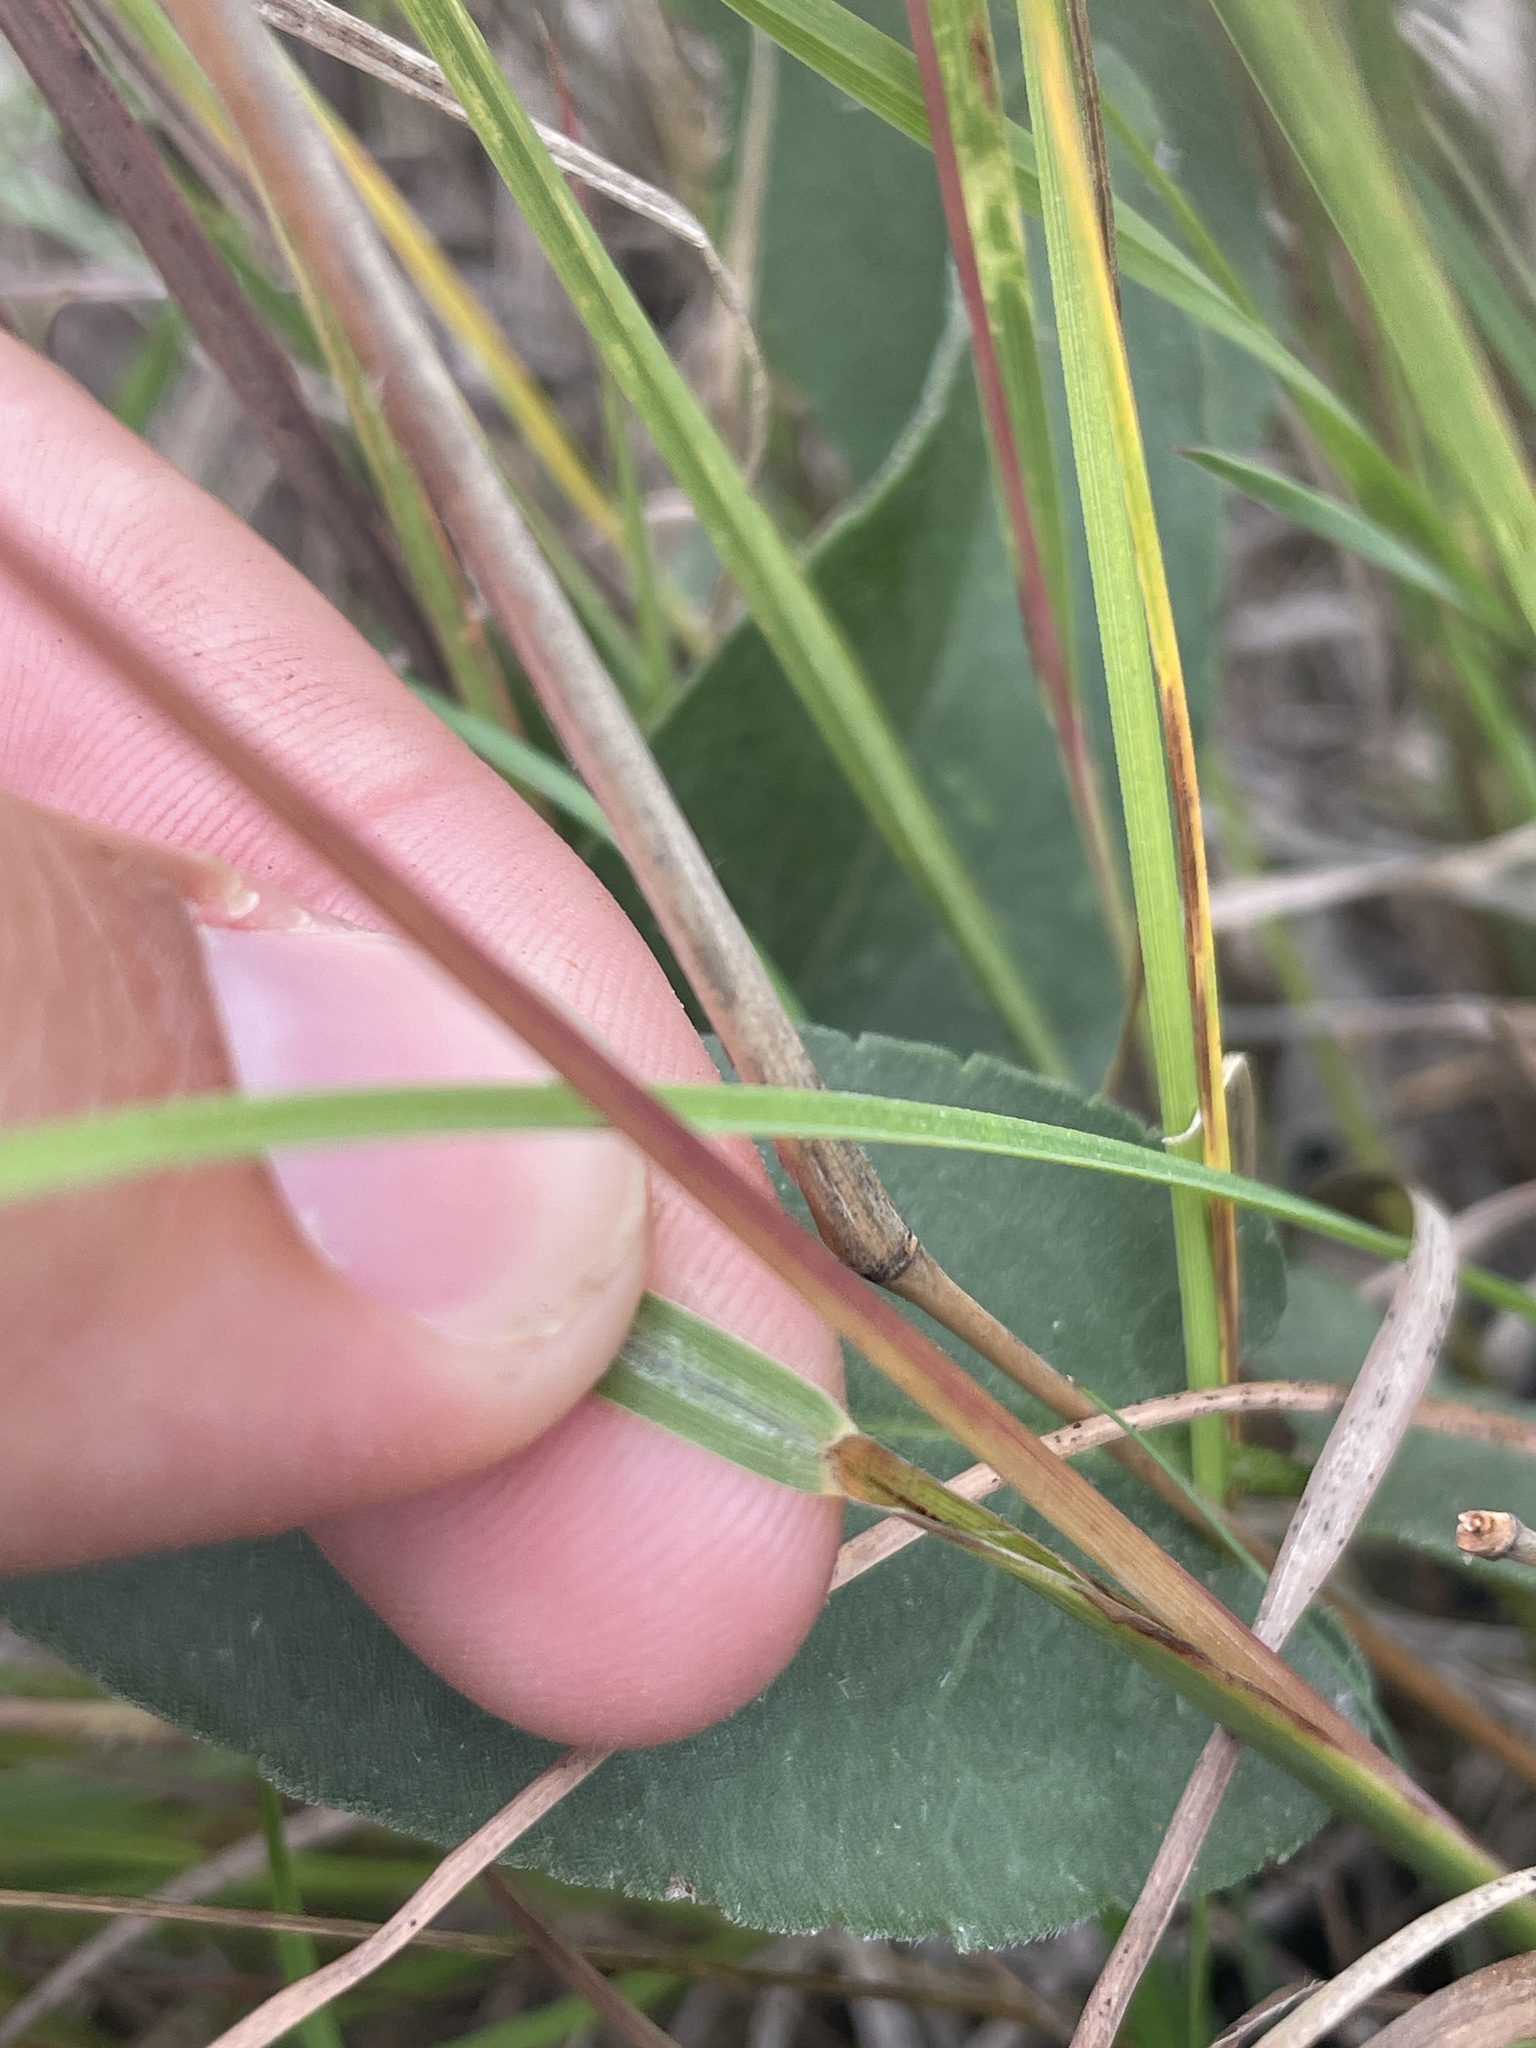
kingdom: Plantae
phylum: Tracheophyta
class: Liliopsida
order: Poales
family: Poaceae
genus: Schizachyrium
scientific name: Schizachyrium scoparium
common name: Little bluestem
